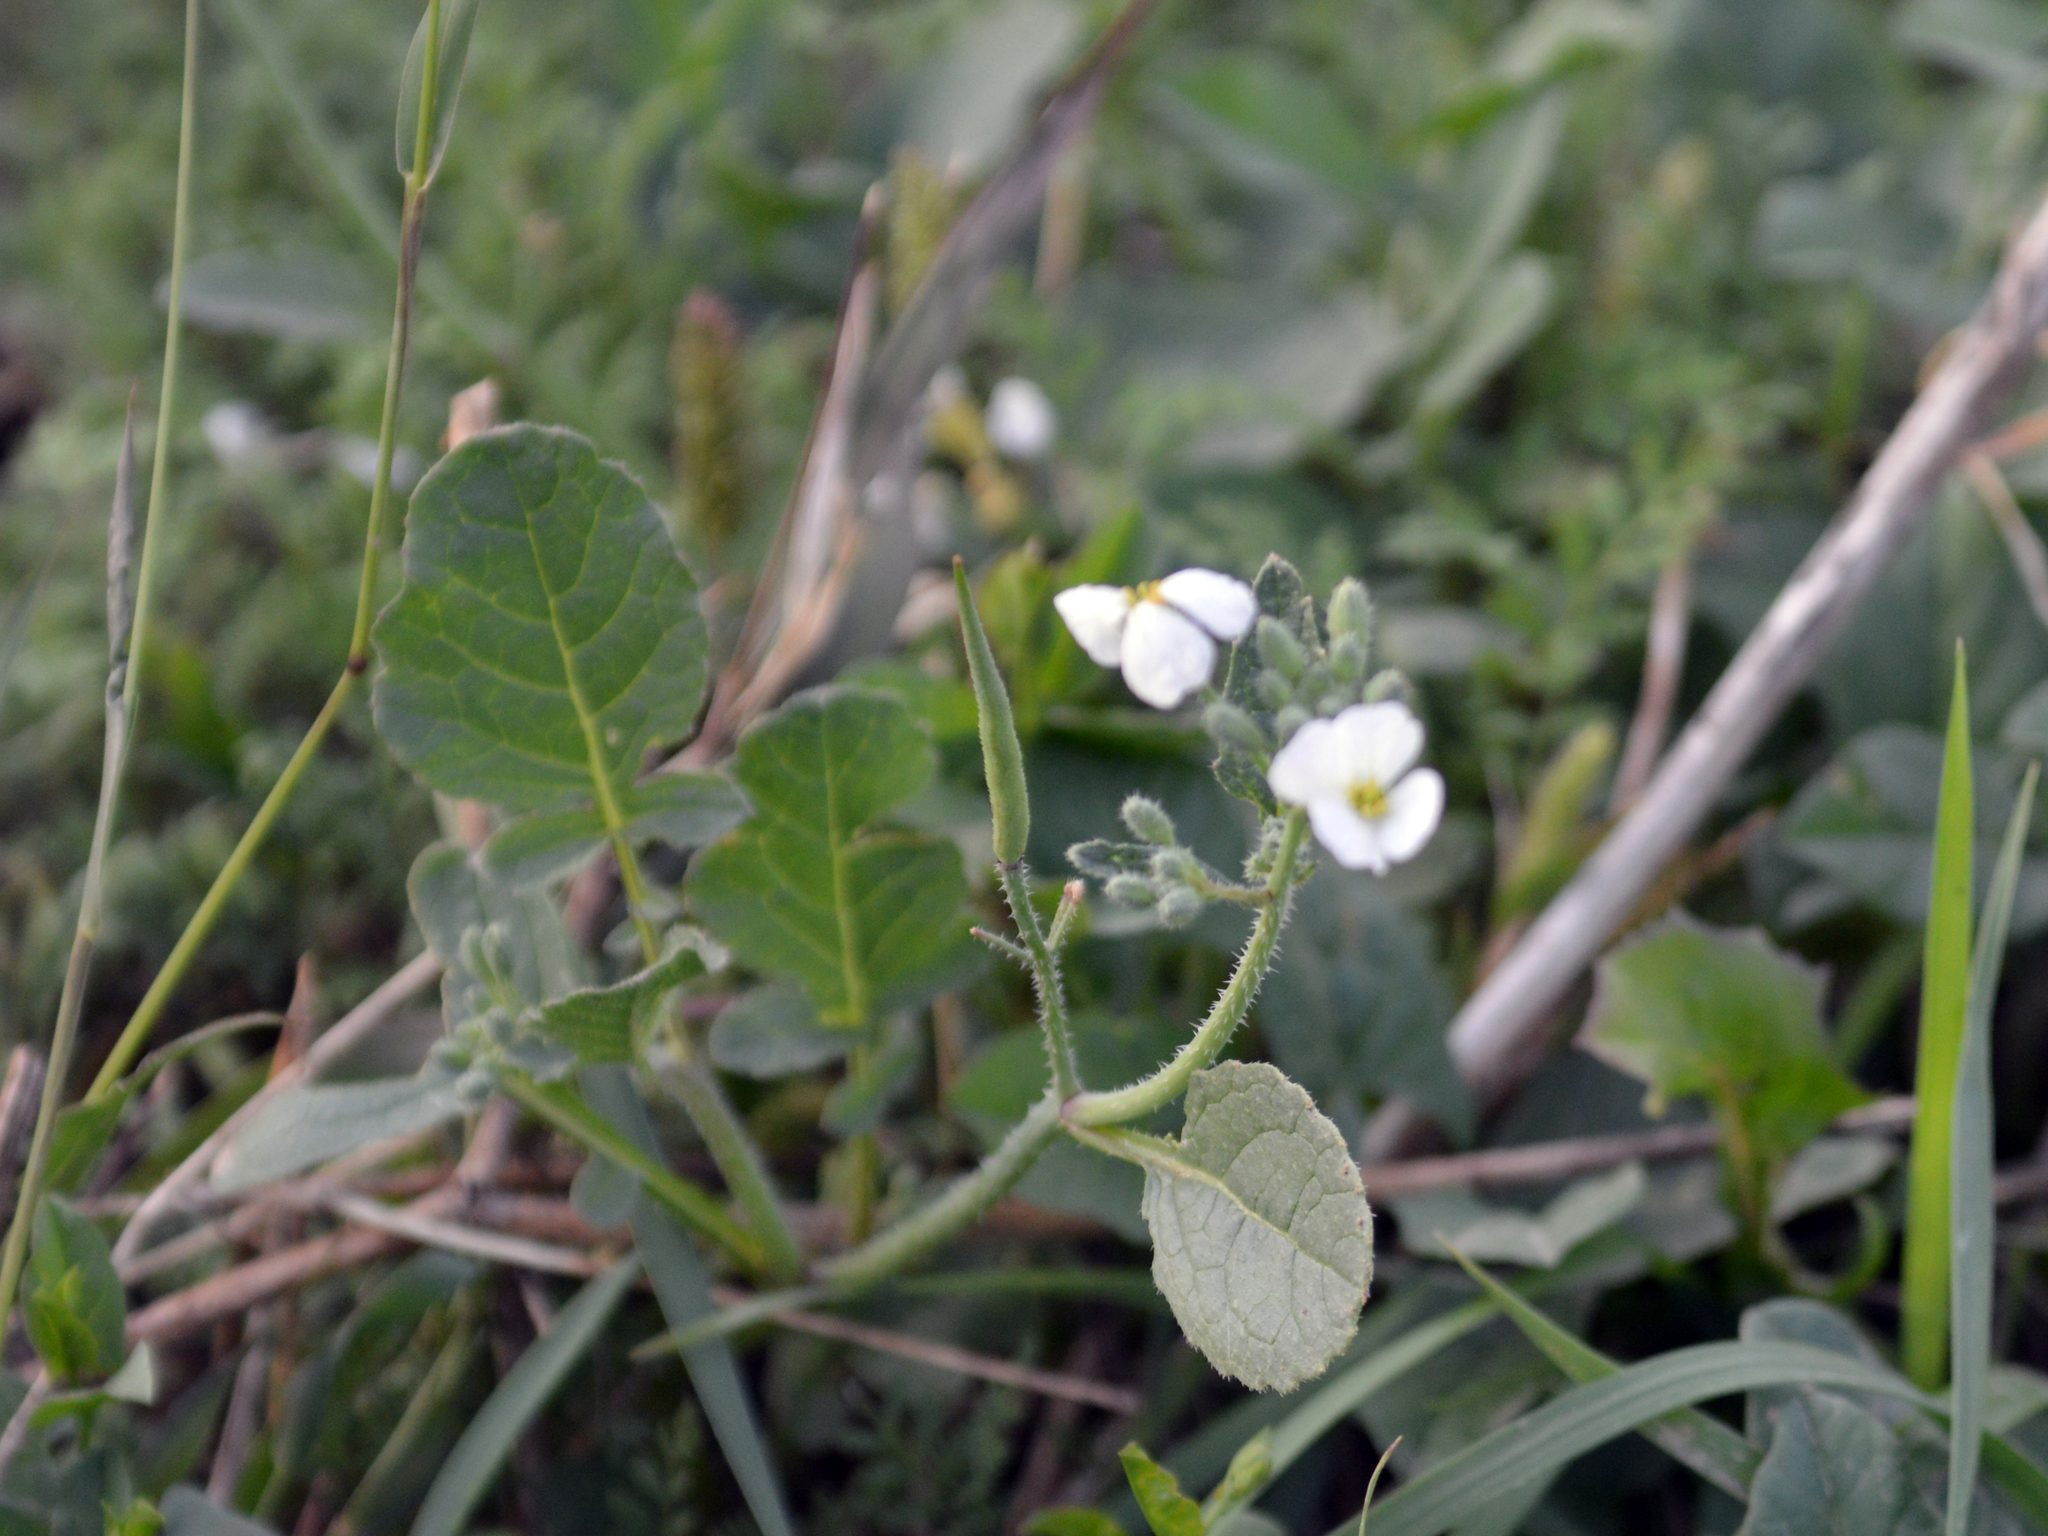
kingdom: Plantae
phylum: Tracheophyta
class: Magnoliopsida
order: Brassicales
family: Brassicaceae
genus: Raphanus
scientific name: Raphanus
